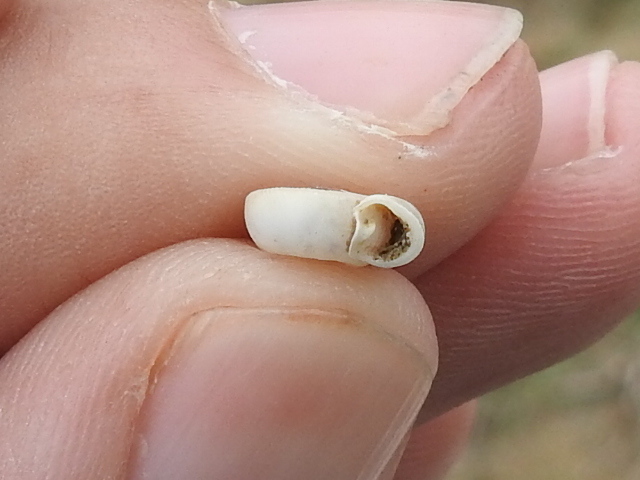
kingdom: Animalia
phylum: Mollusca
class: Gastropoda
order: Stylommatophora
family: Polygyridae
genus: Polygyra
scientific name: Polygyra cereolus
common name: Southern flatcone snail
